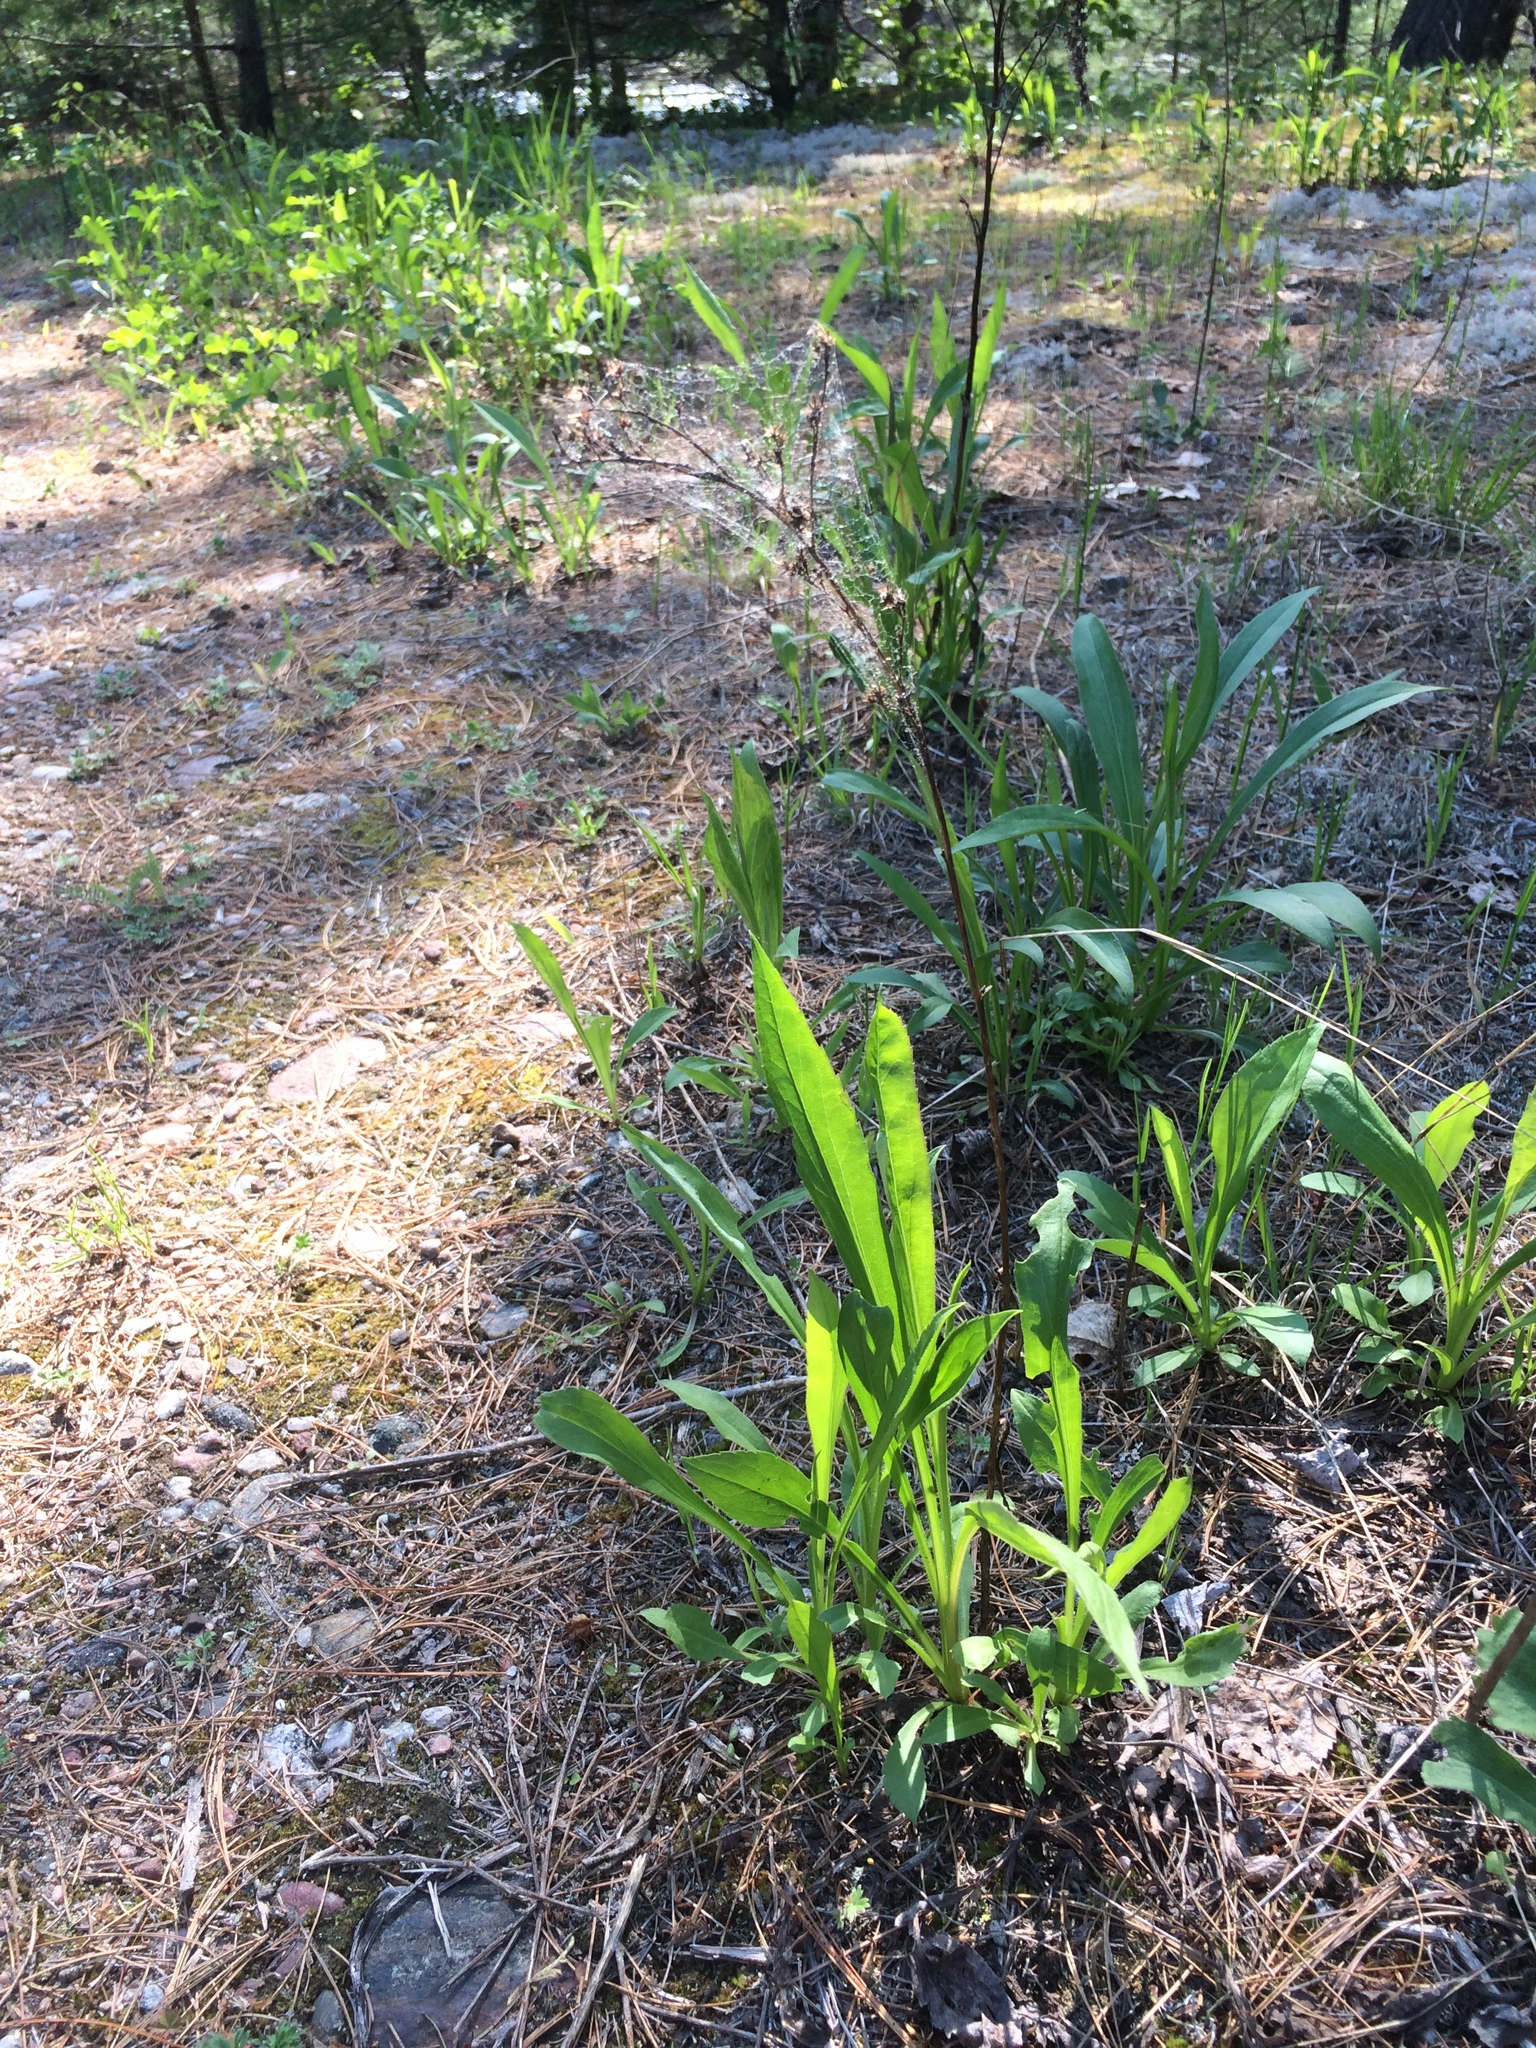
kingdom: Plantae
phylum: Tracheophyta
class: Magnoliopsida
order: Asterales
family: Asteraceae
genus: Solidago
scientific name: Solidago juncea
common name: Early goldenrod
